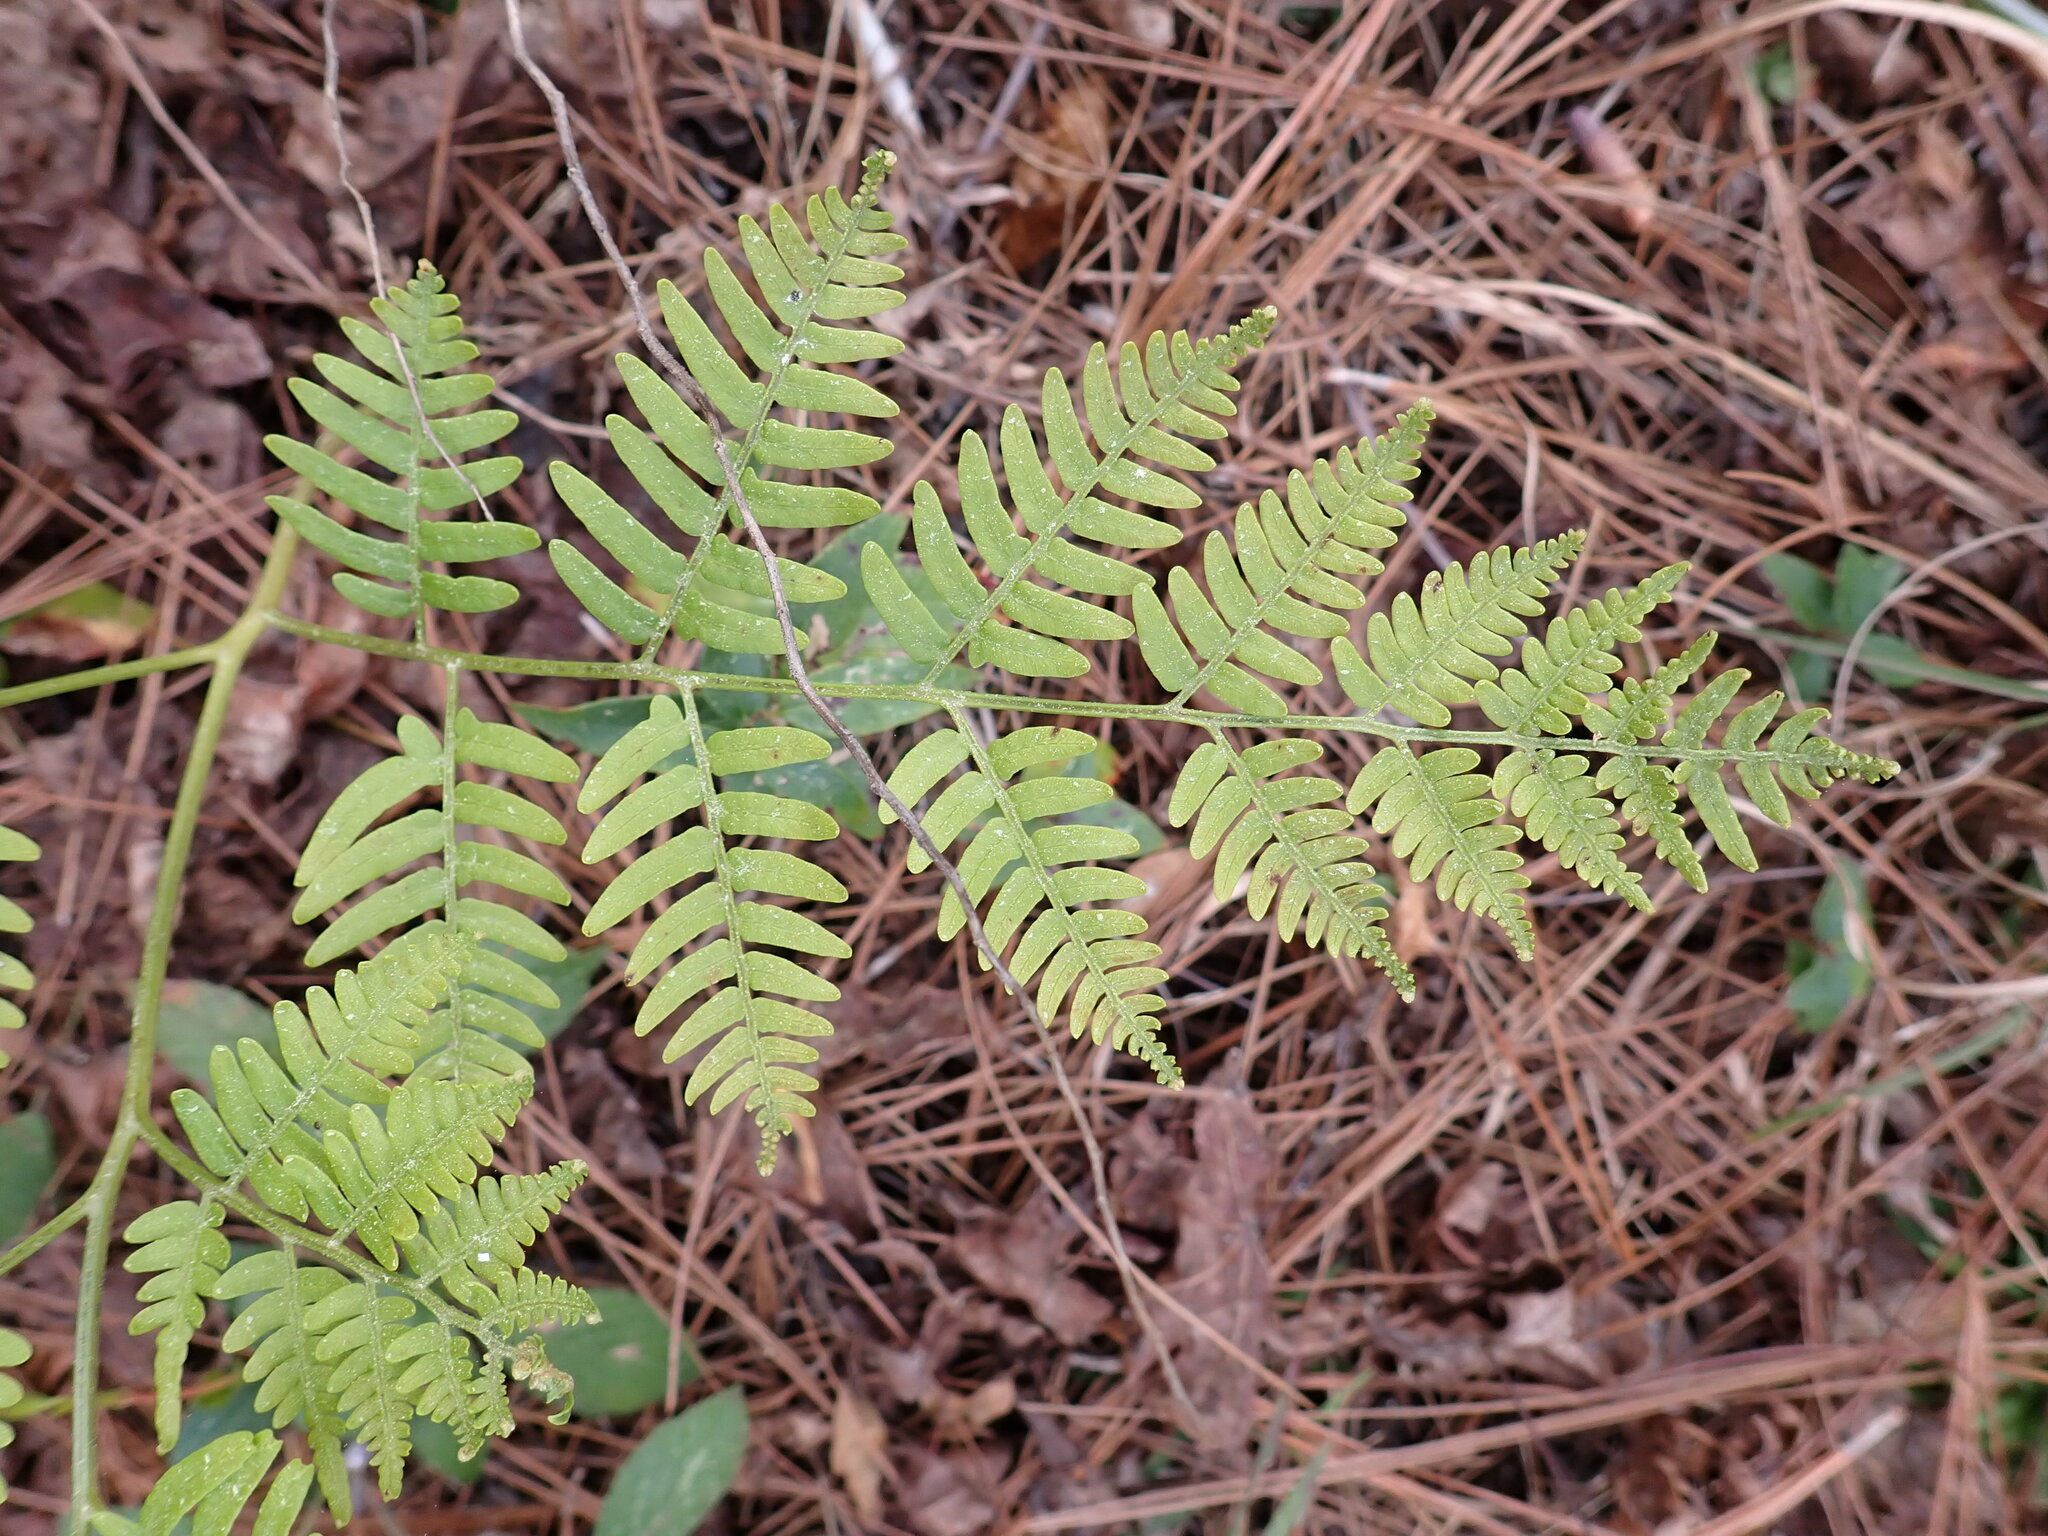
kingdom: Plantae
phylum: Tracheophyta
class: Polypodiopsida
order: Polypodiales
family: Dennstaedtiaceae
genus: Pteridium
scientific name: Pteridium aquilinum
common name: Bracken
